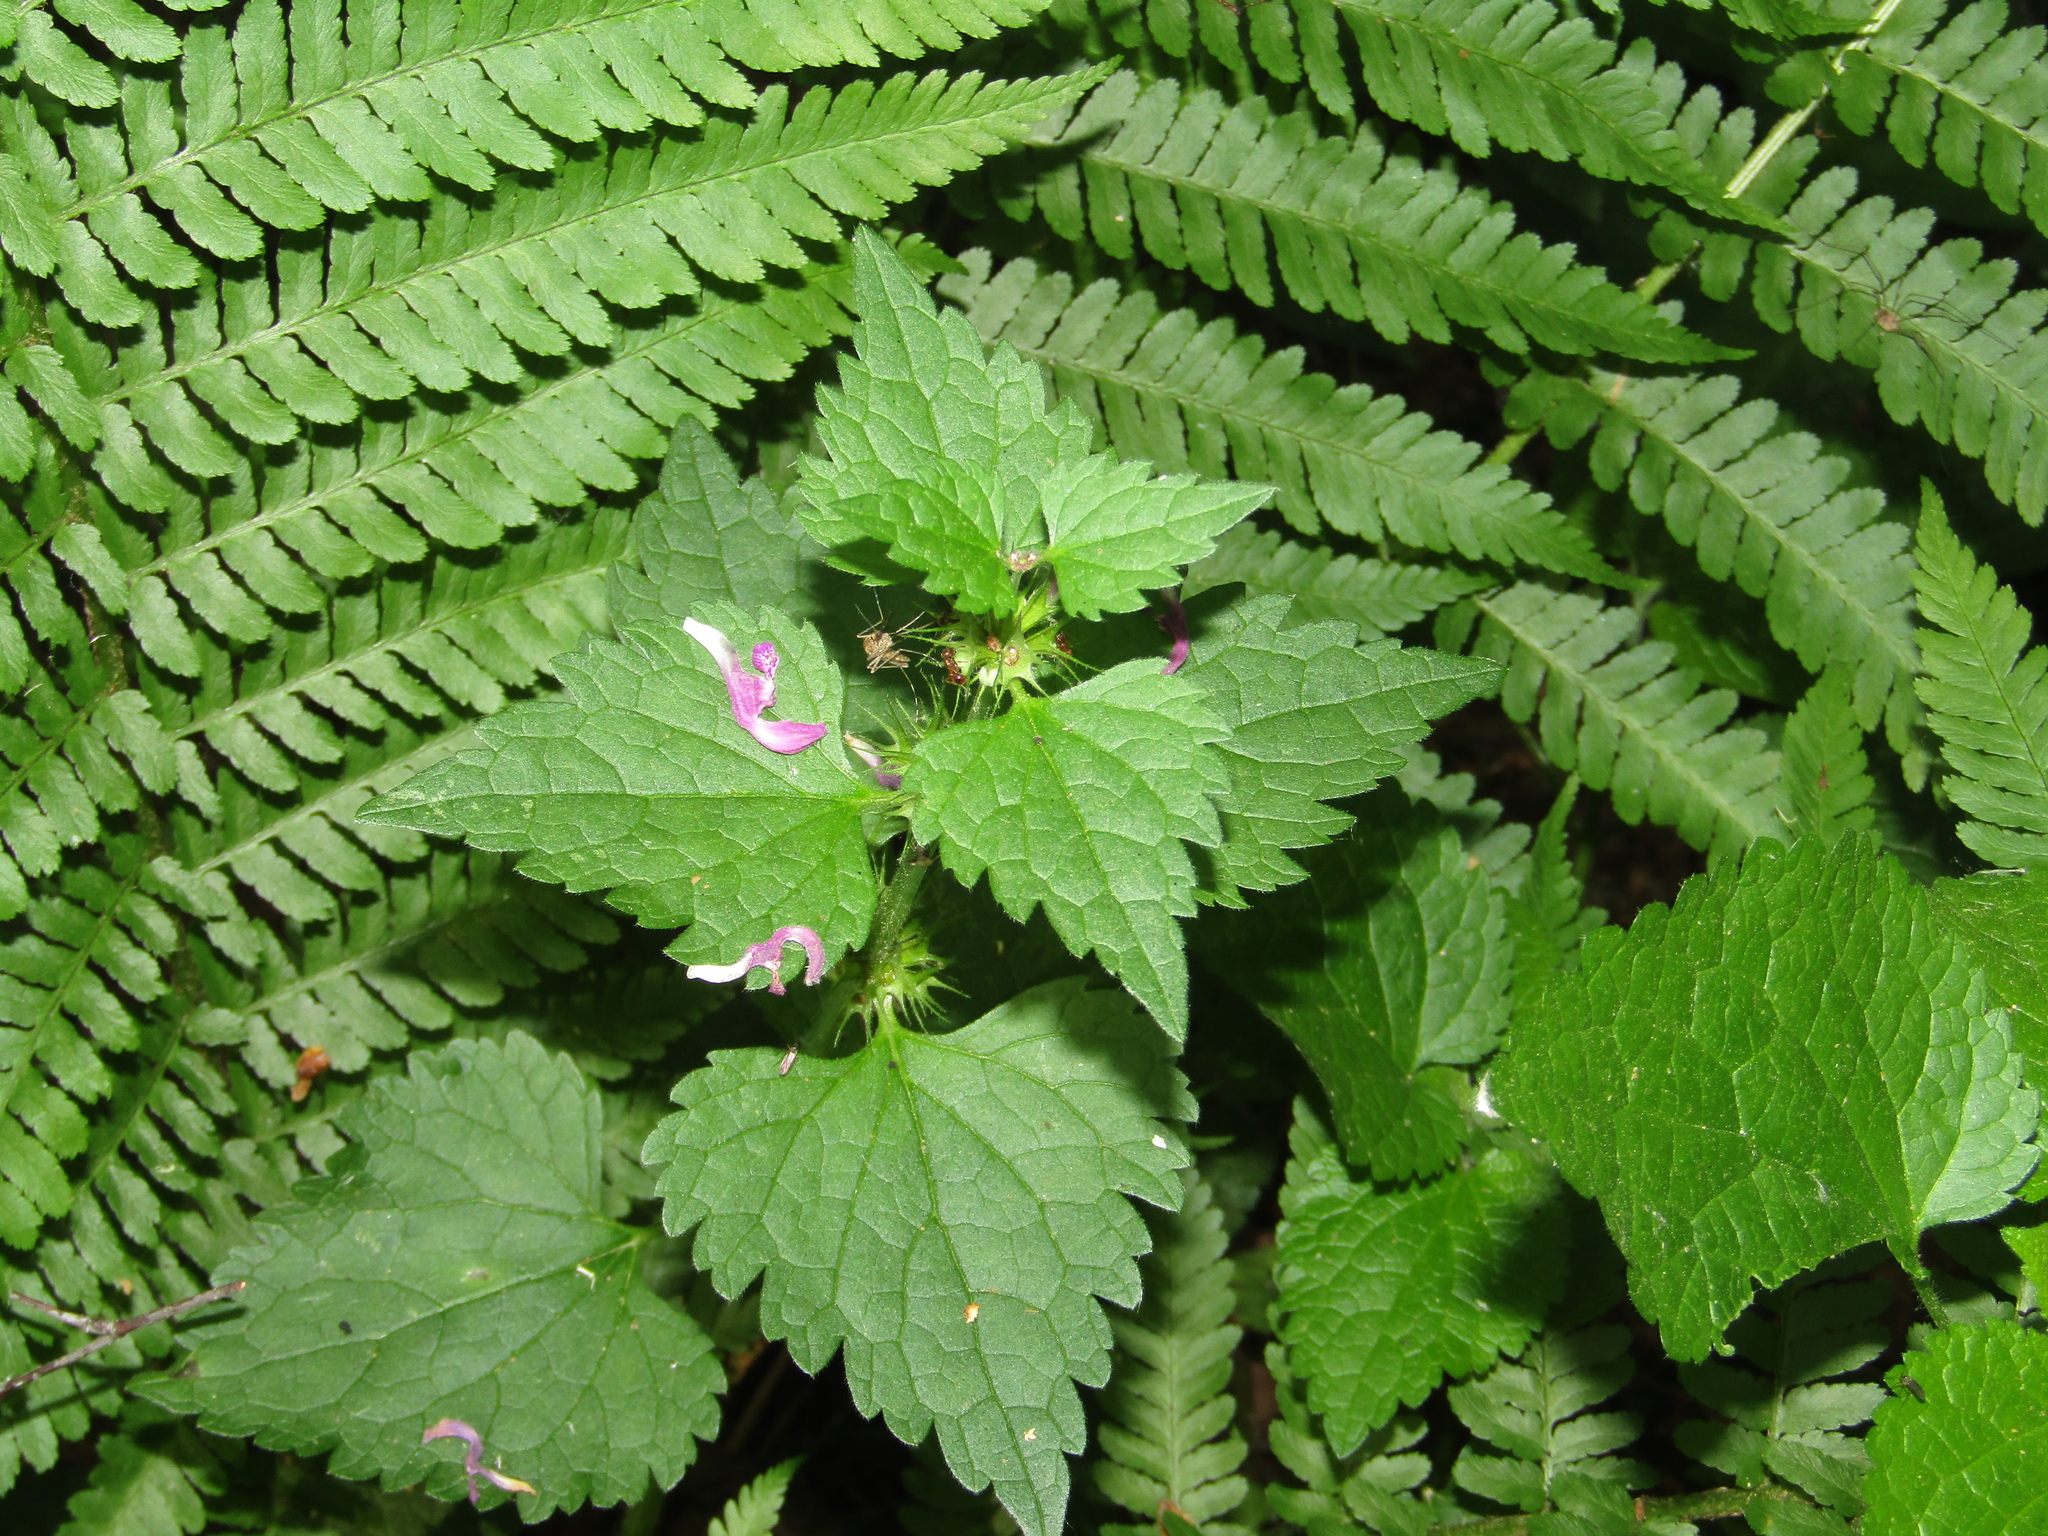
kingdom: Plantae
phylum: Tracheophyta
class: Magnoliopsida
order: Lamiales
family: Lamiaceae
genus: Lamium
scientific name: Lamium maculatum
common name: Spotted dead-nettle
